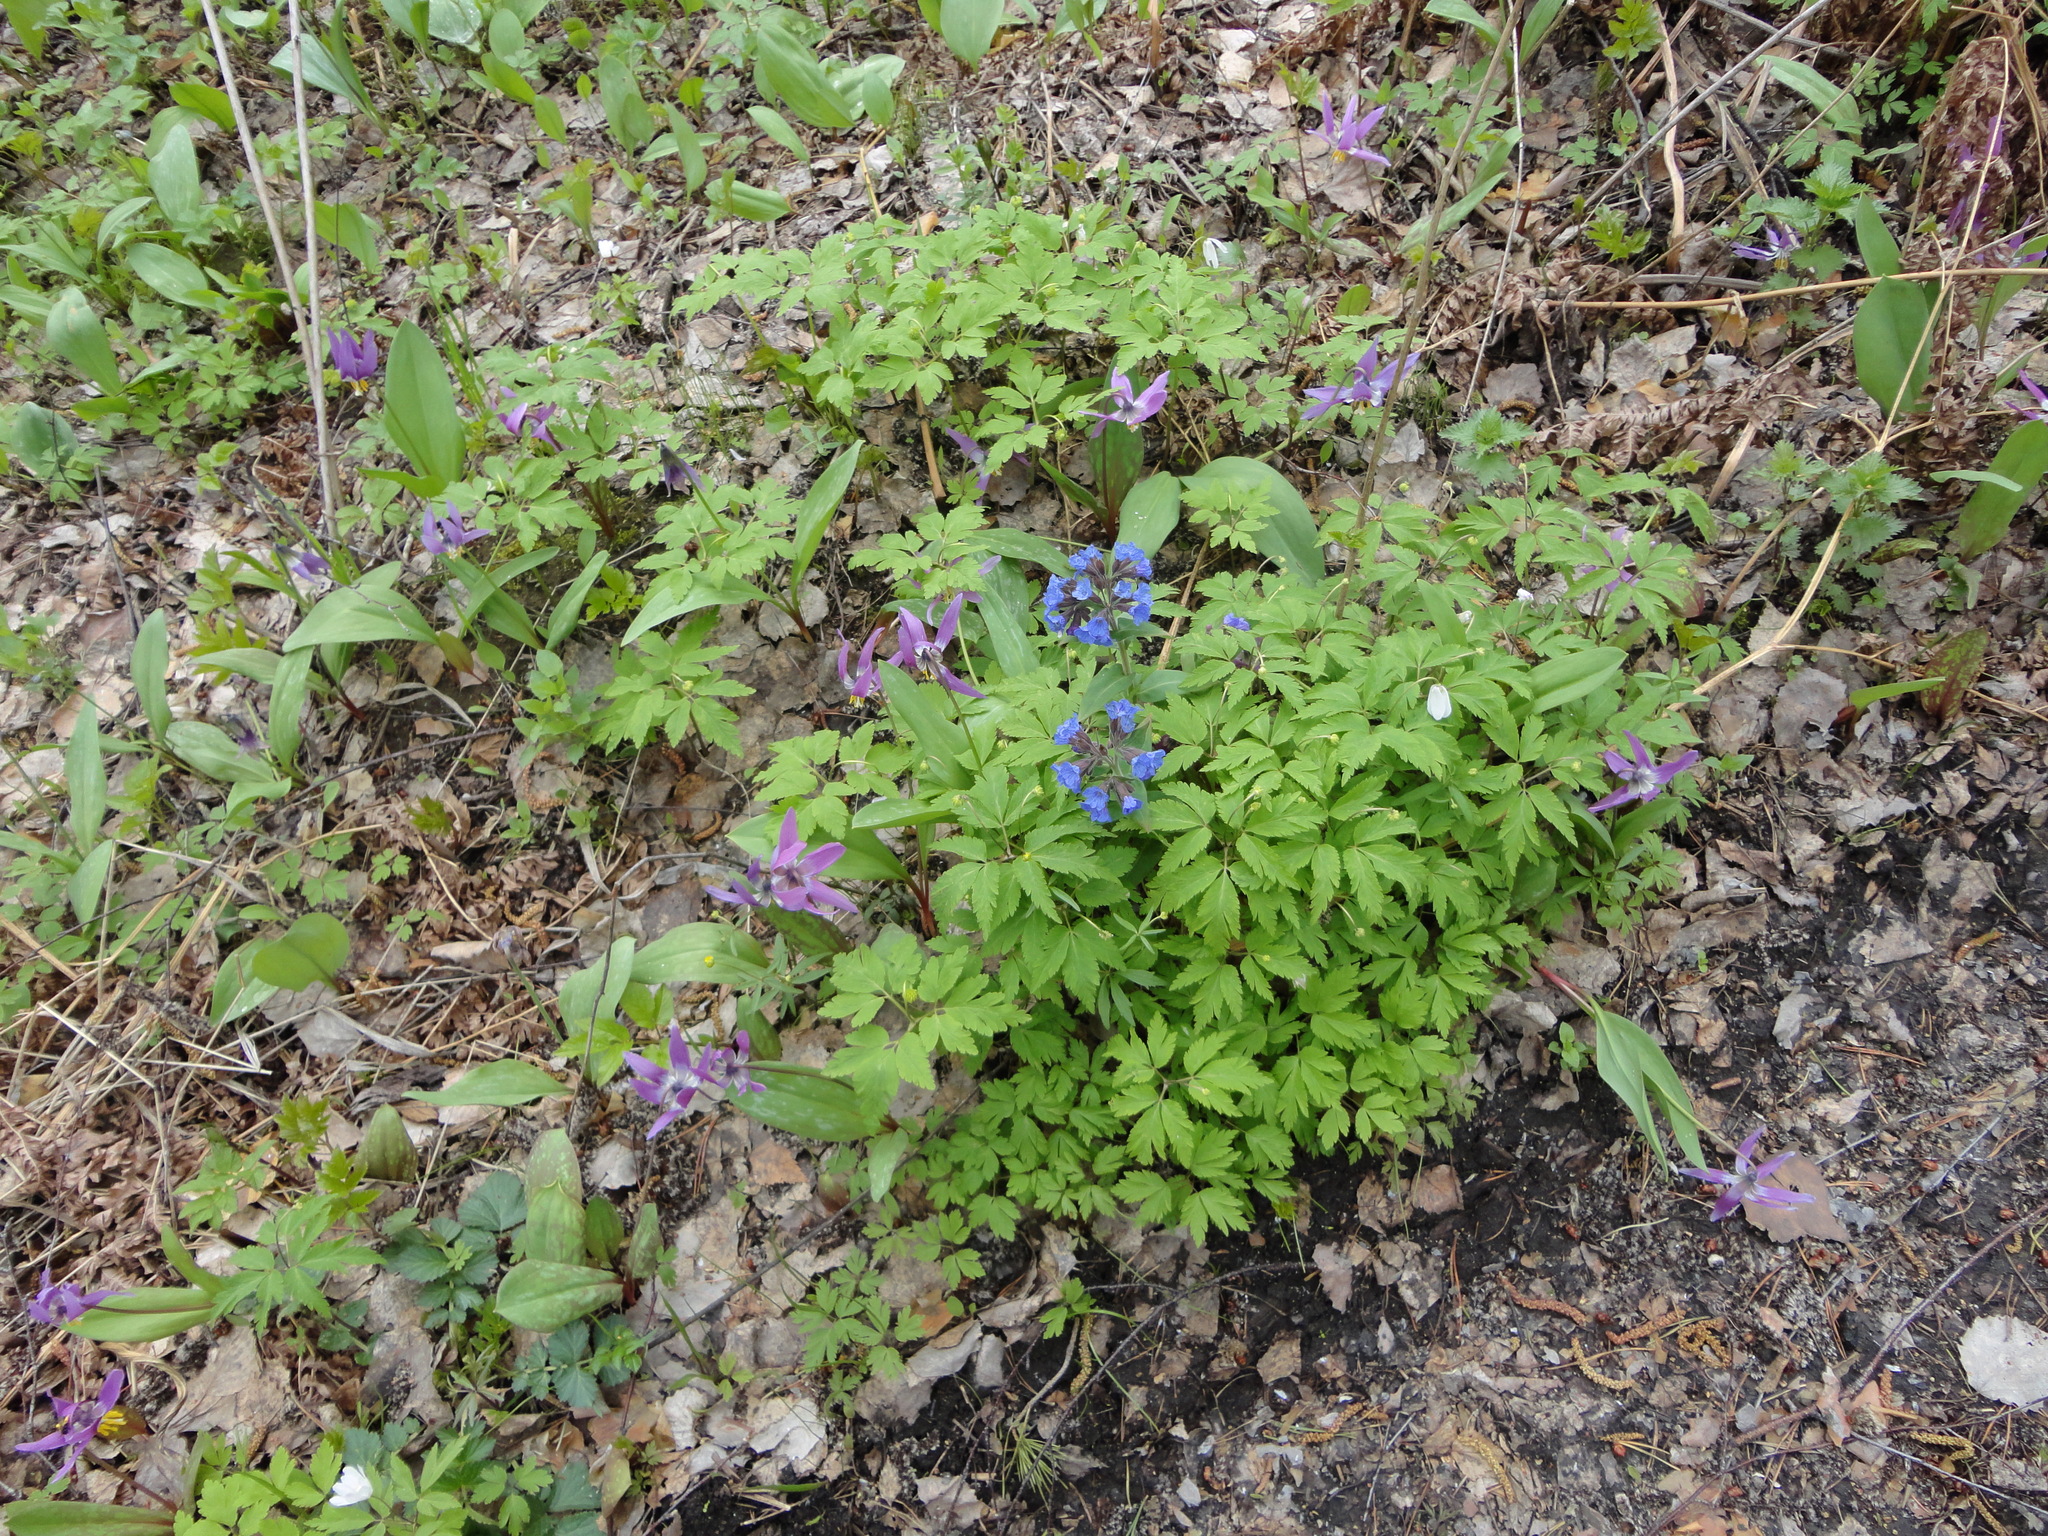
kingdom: Plantae
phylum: Tracheophyta
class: Magnoliopsida
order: Boraginales
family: Boraginaceae
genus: Pulmonaria
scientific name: Pulmonaria mollis
